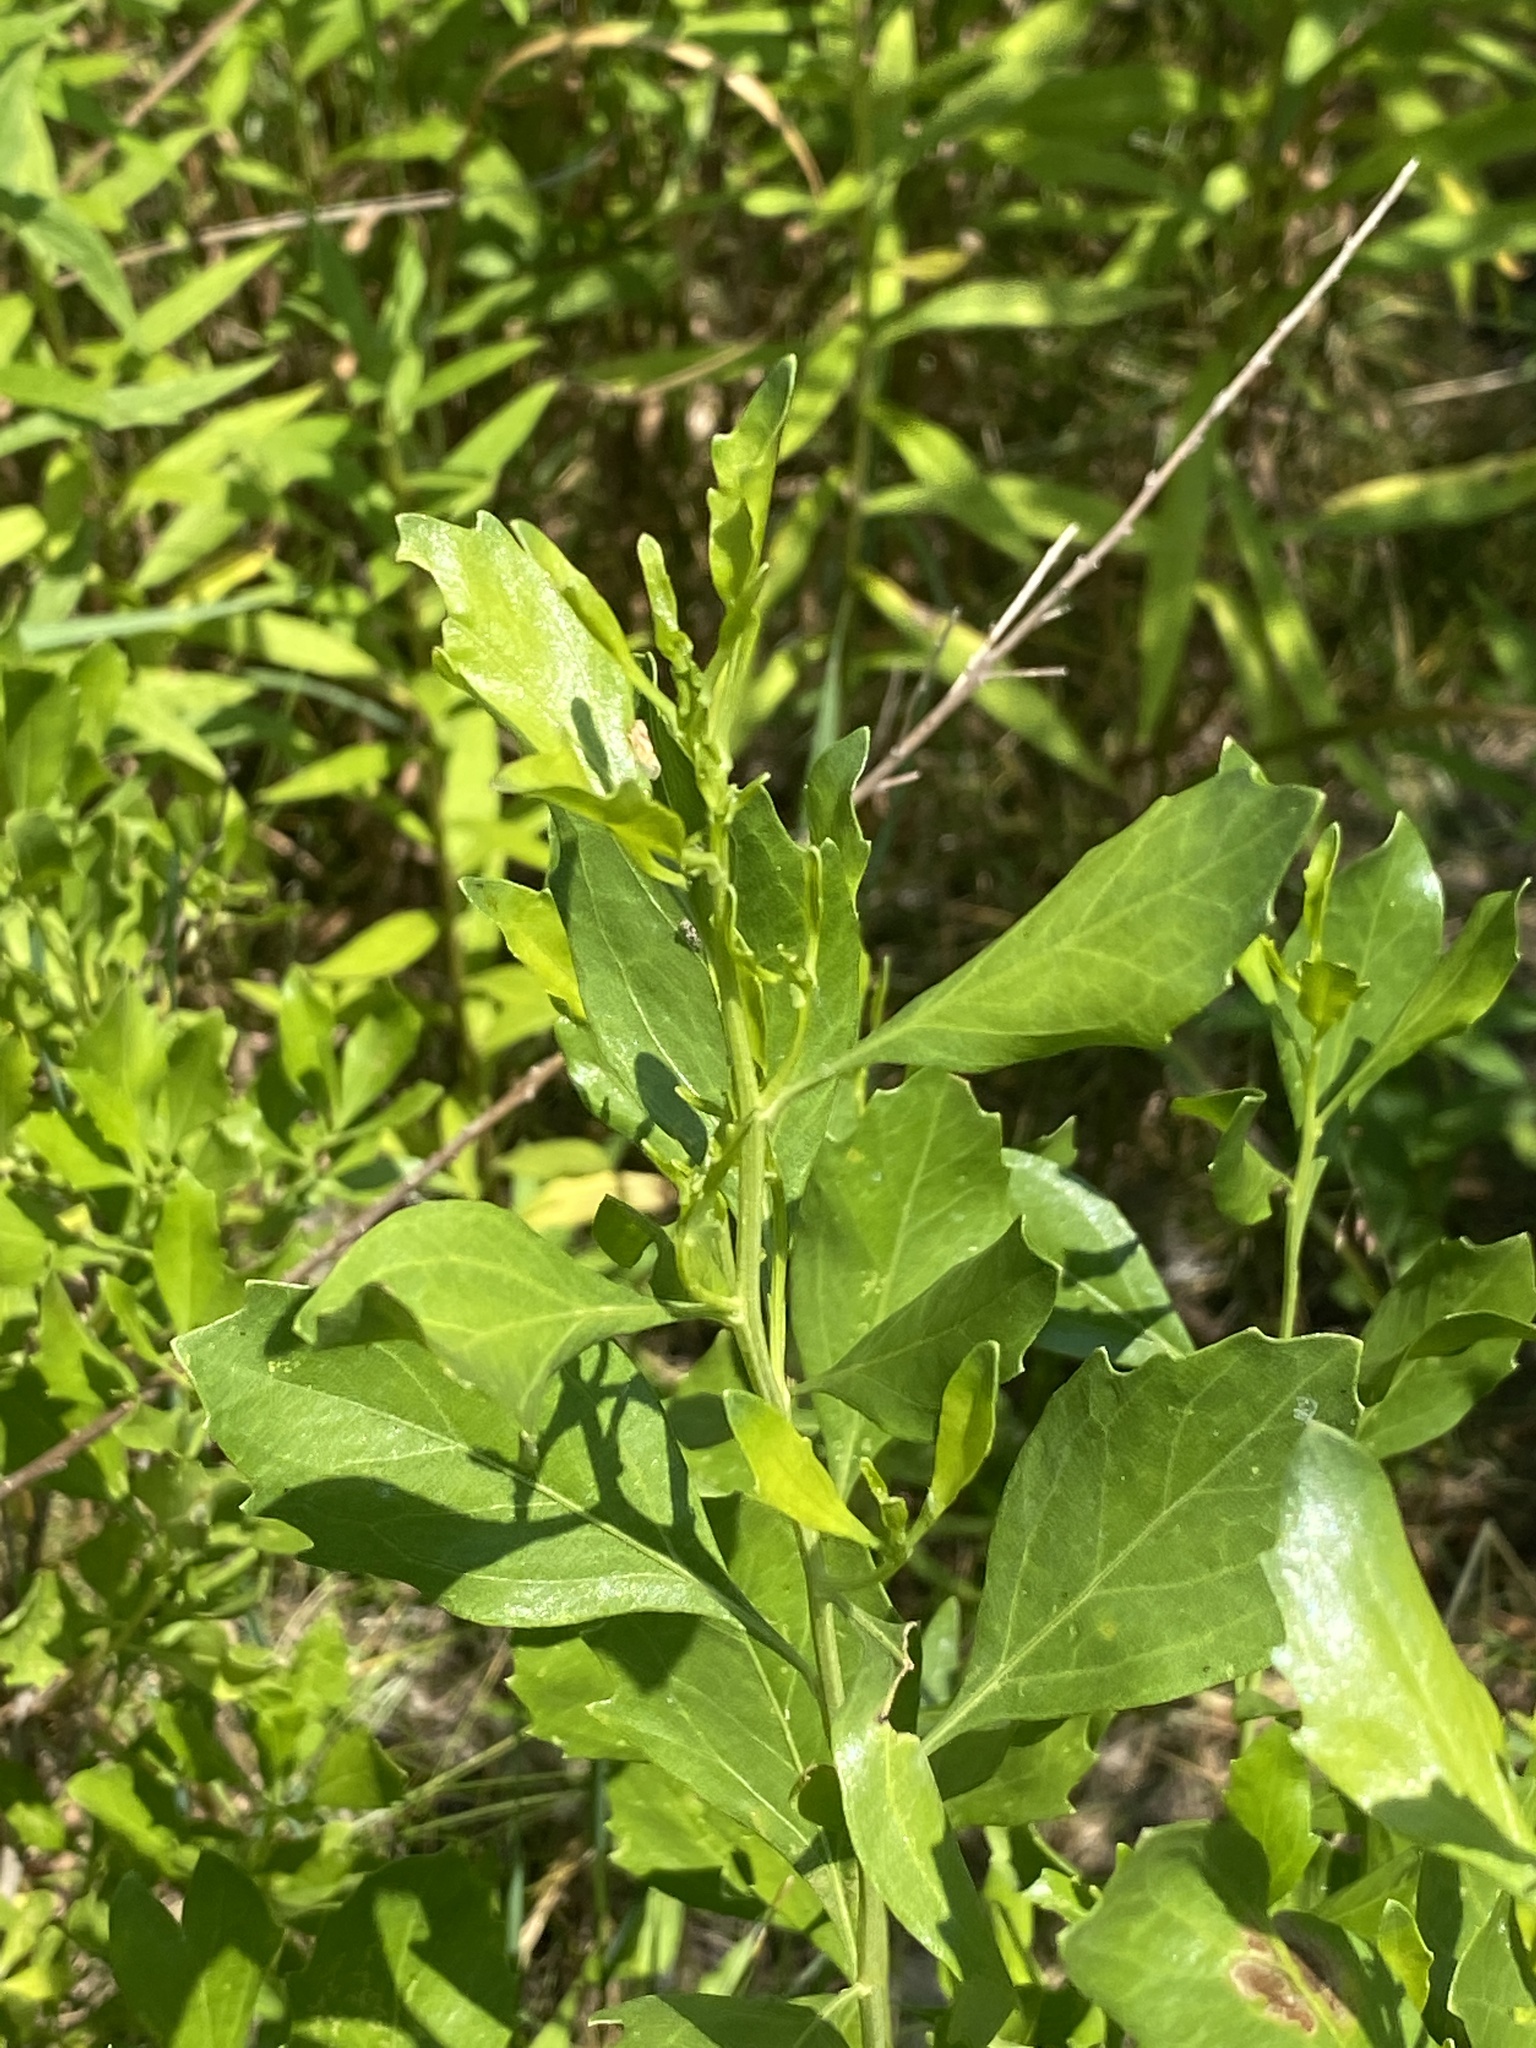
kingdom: Plantae
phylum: Tracheophyta
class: Magnoliopsida
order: Asterales
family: Asteraceae
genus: Baccharis
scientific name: Baccharis halimifolia
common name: Eastern baccharis
